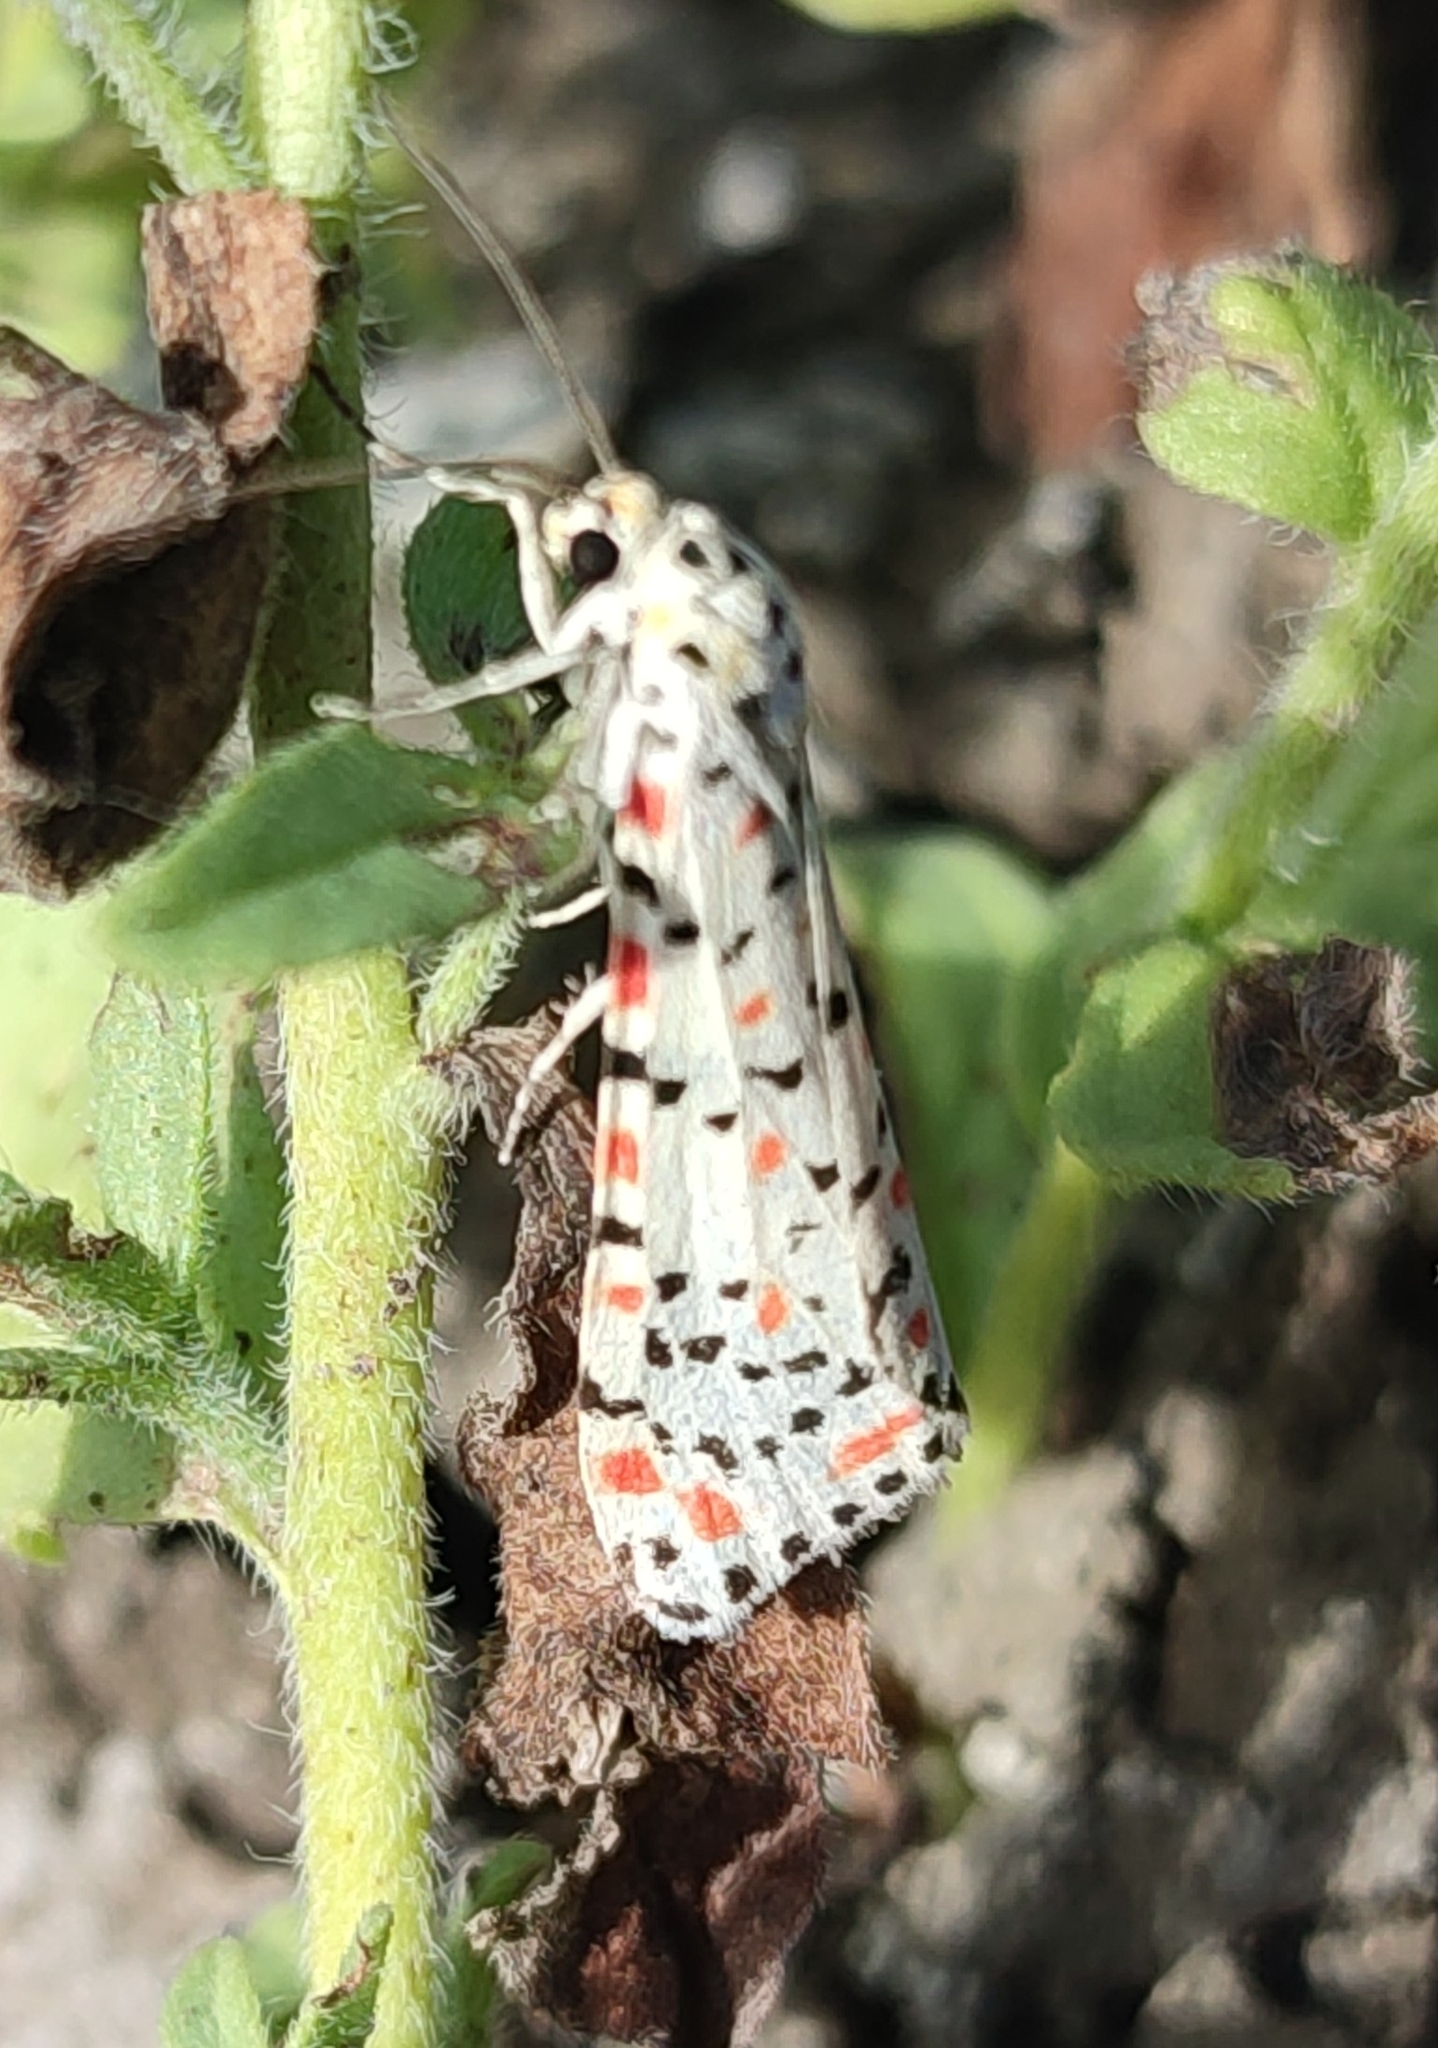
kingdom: Animalia
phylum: Arthropoda
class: Insecta
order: Lepidoptera
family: Erebidae
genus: Utetheisa
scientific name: Utetheisa pulchella
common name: Crimson speckled
